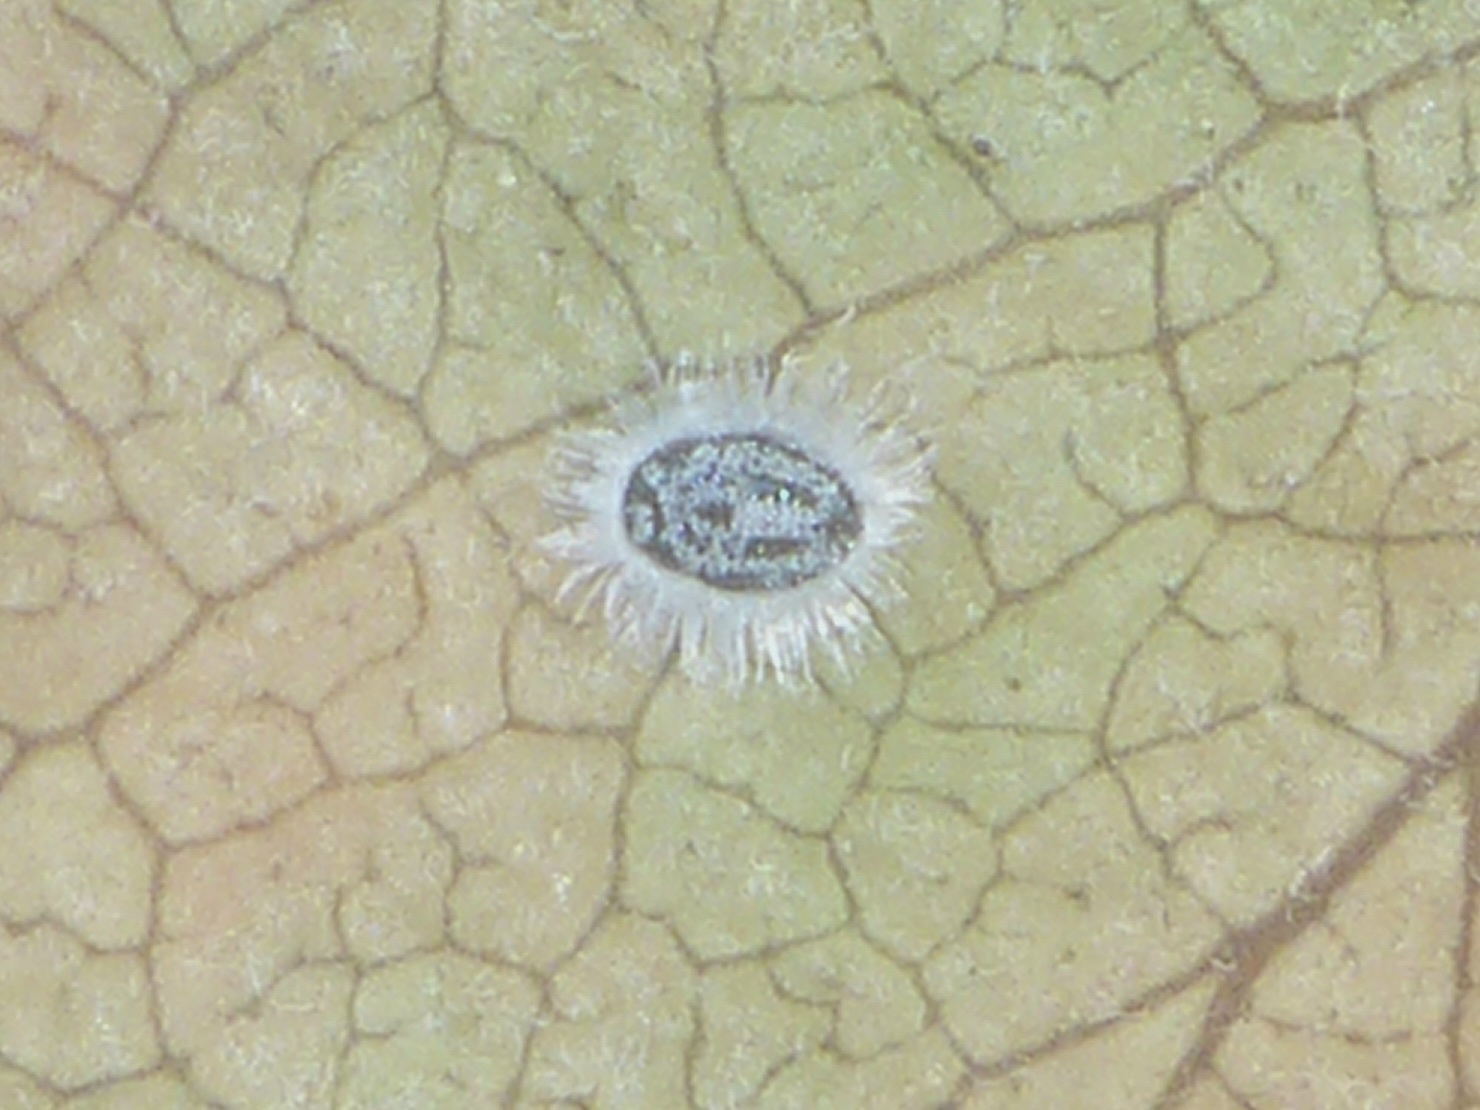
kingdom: Animalia
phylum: Arthropoda
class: Insecta
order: Hemiptera
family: Aleyrodidae
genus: Aleuroparadoxus
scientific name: Aleuroparadoxus arctostaphyli
